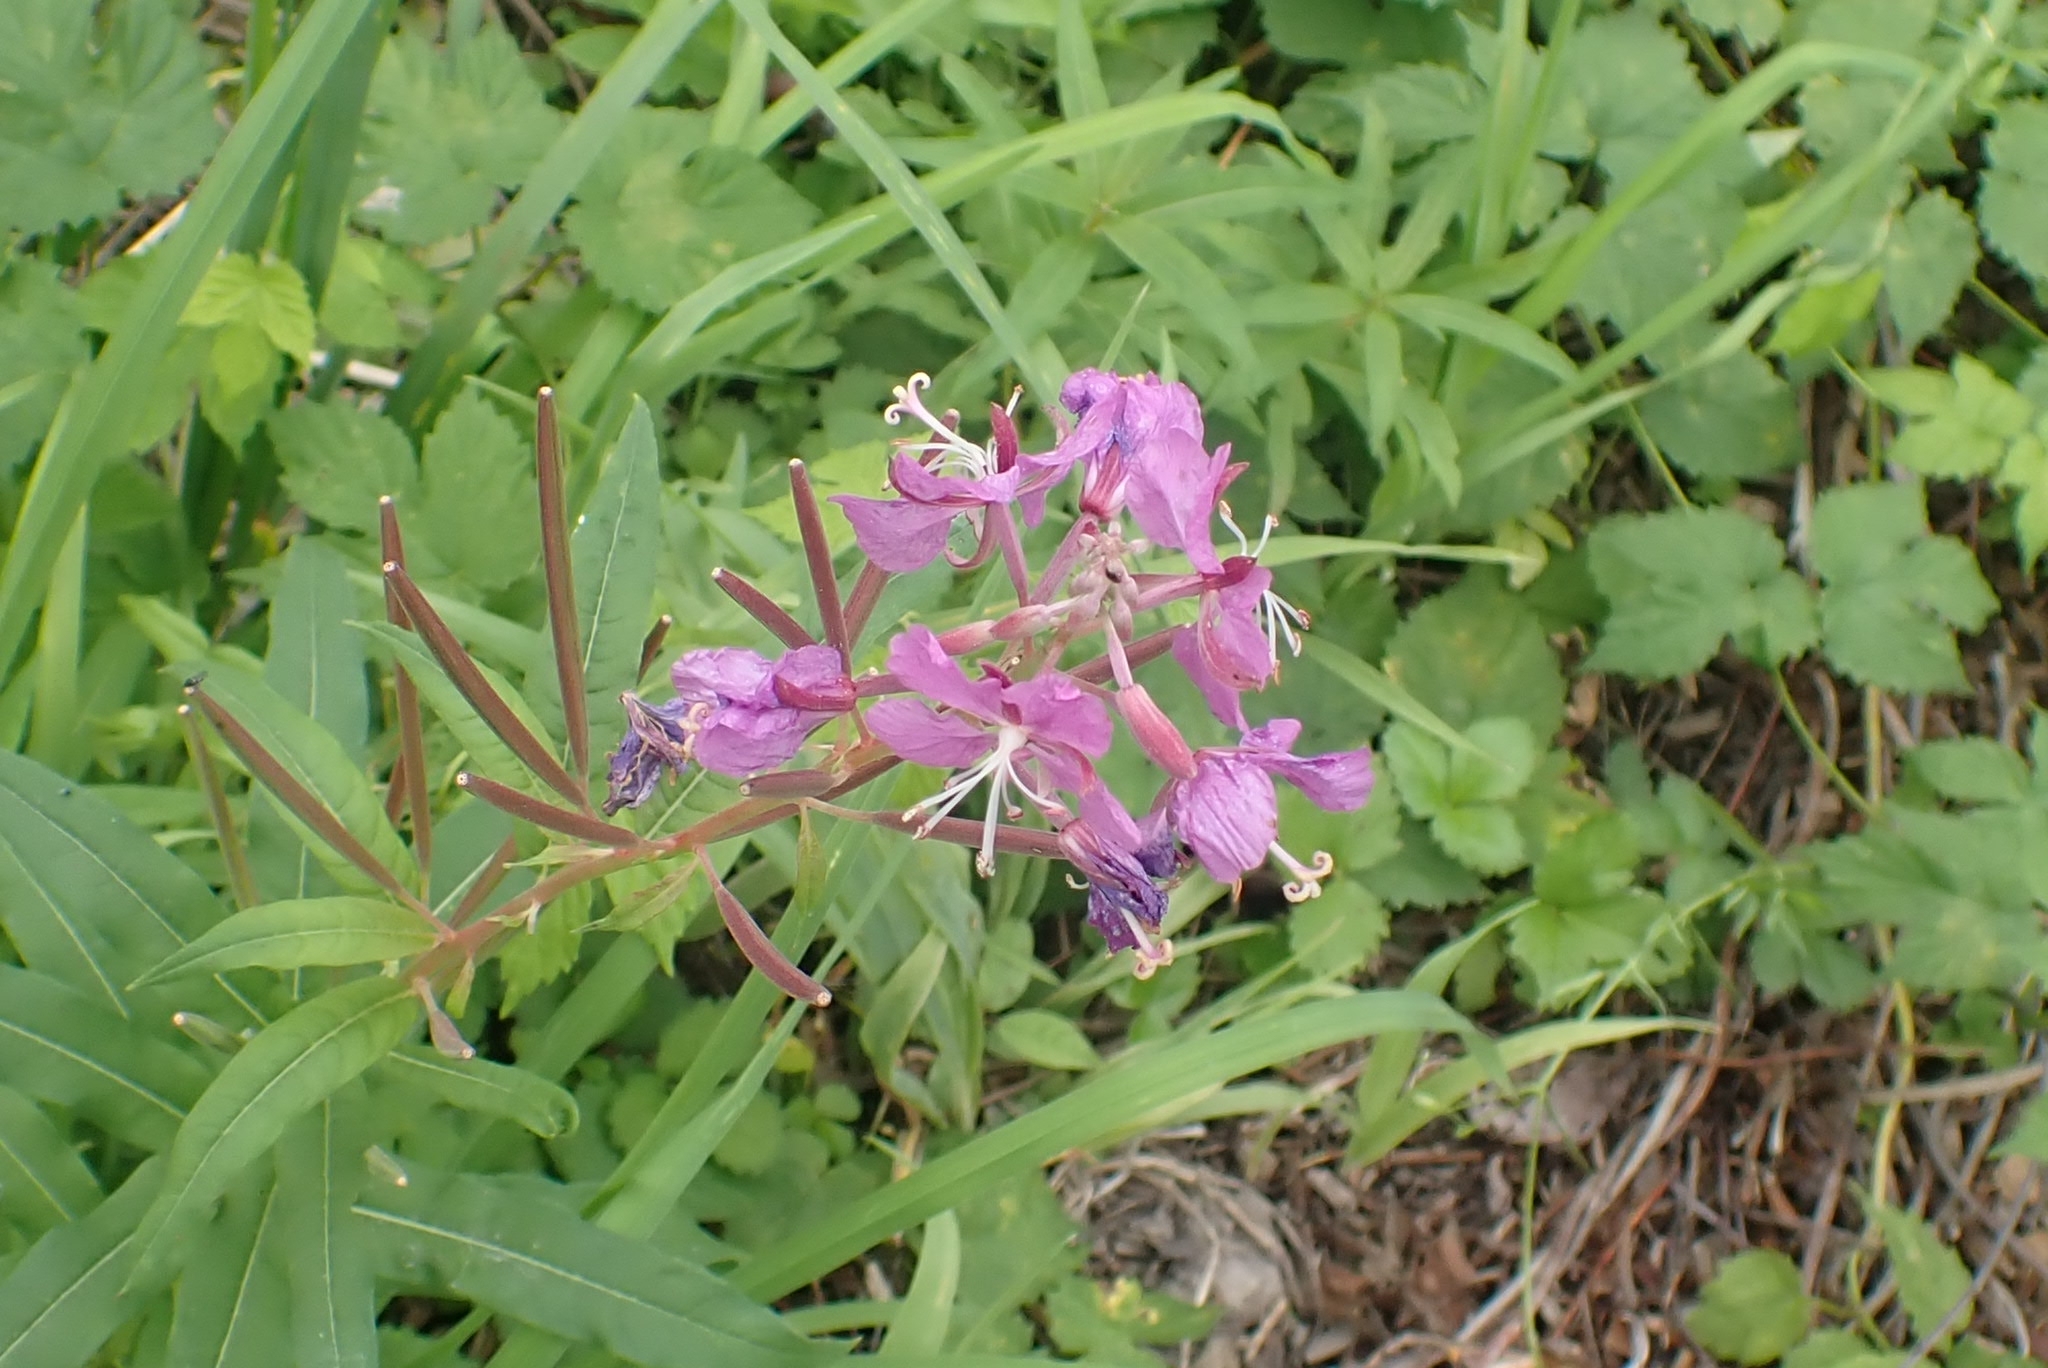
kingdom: Plantae
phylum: Tracheophyta
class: Magnoliopsida
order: Myrtales
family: Onagraceae
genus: Chamaenerion
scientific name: Chamaenerion angustifolium
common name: Fireweed
